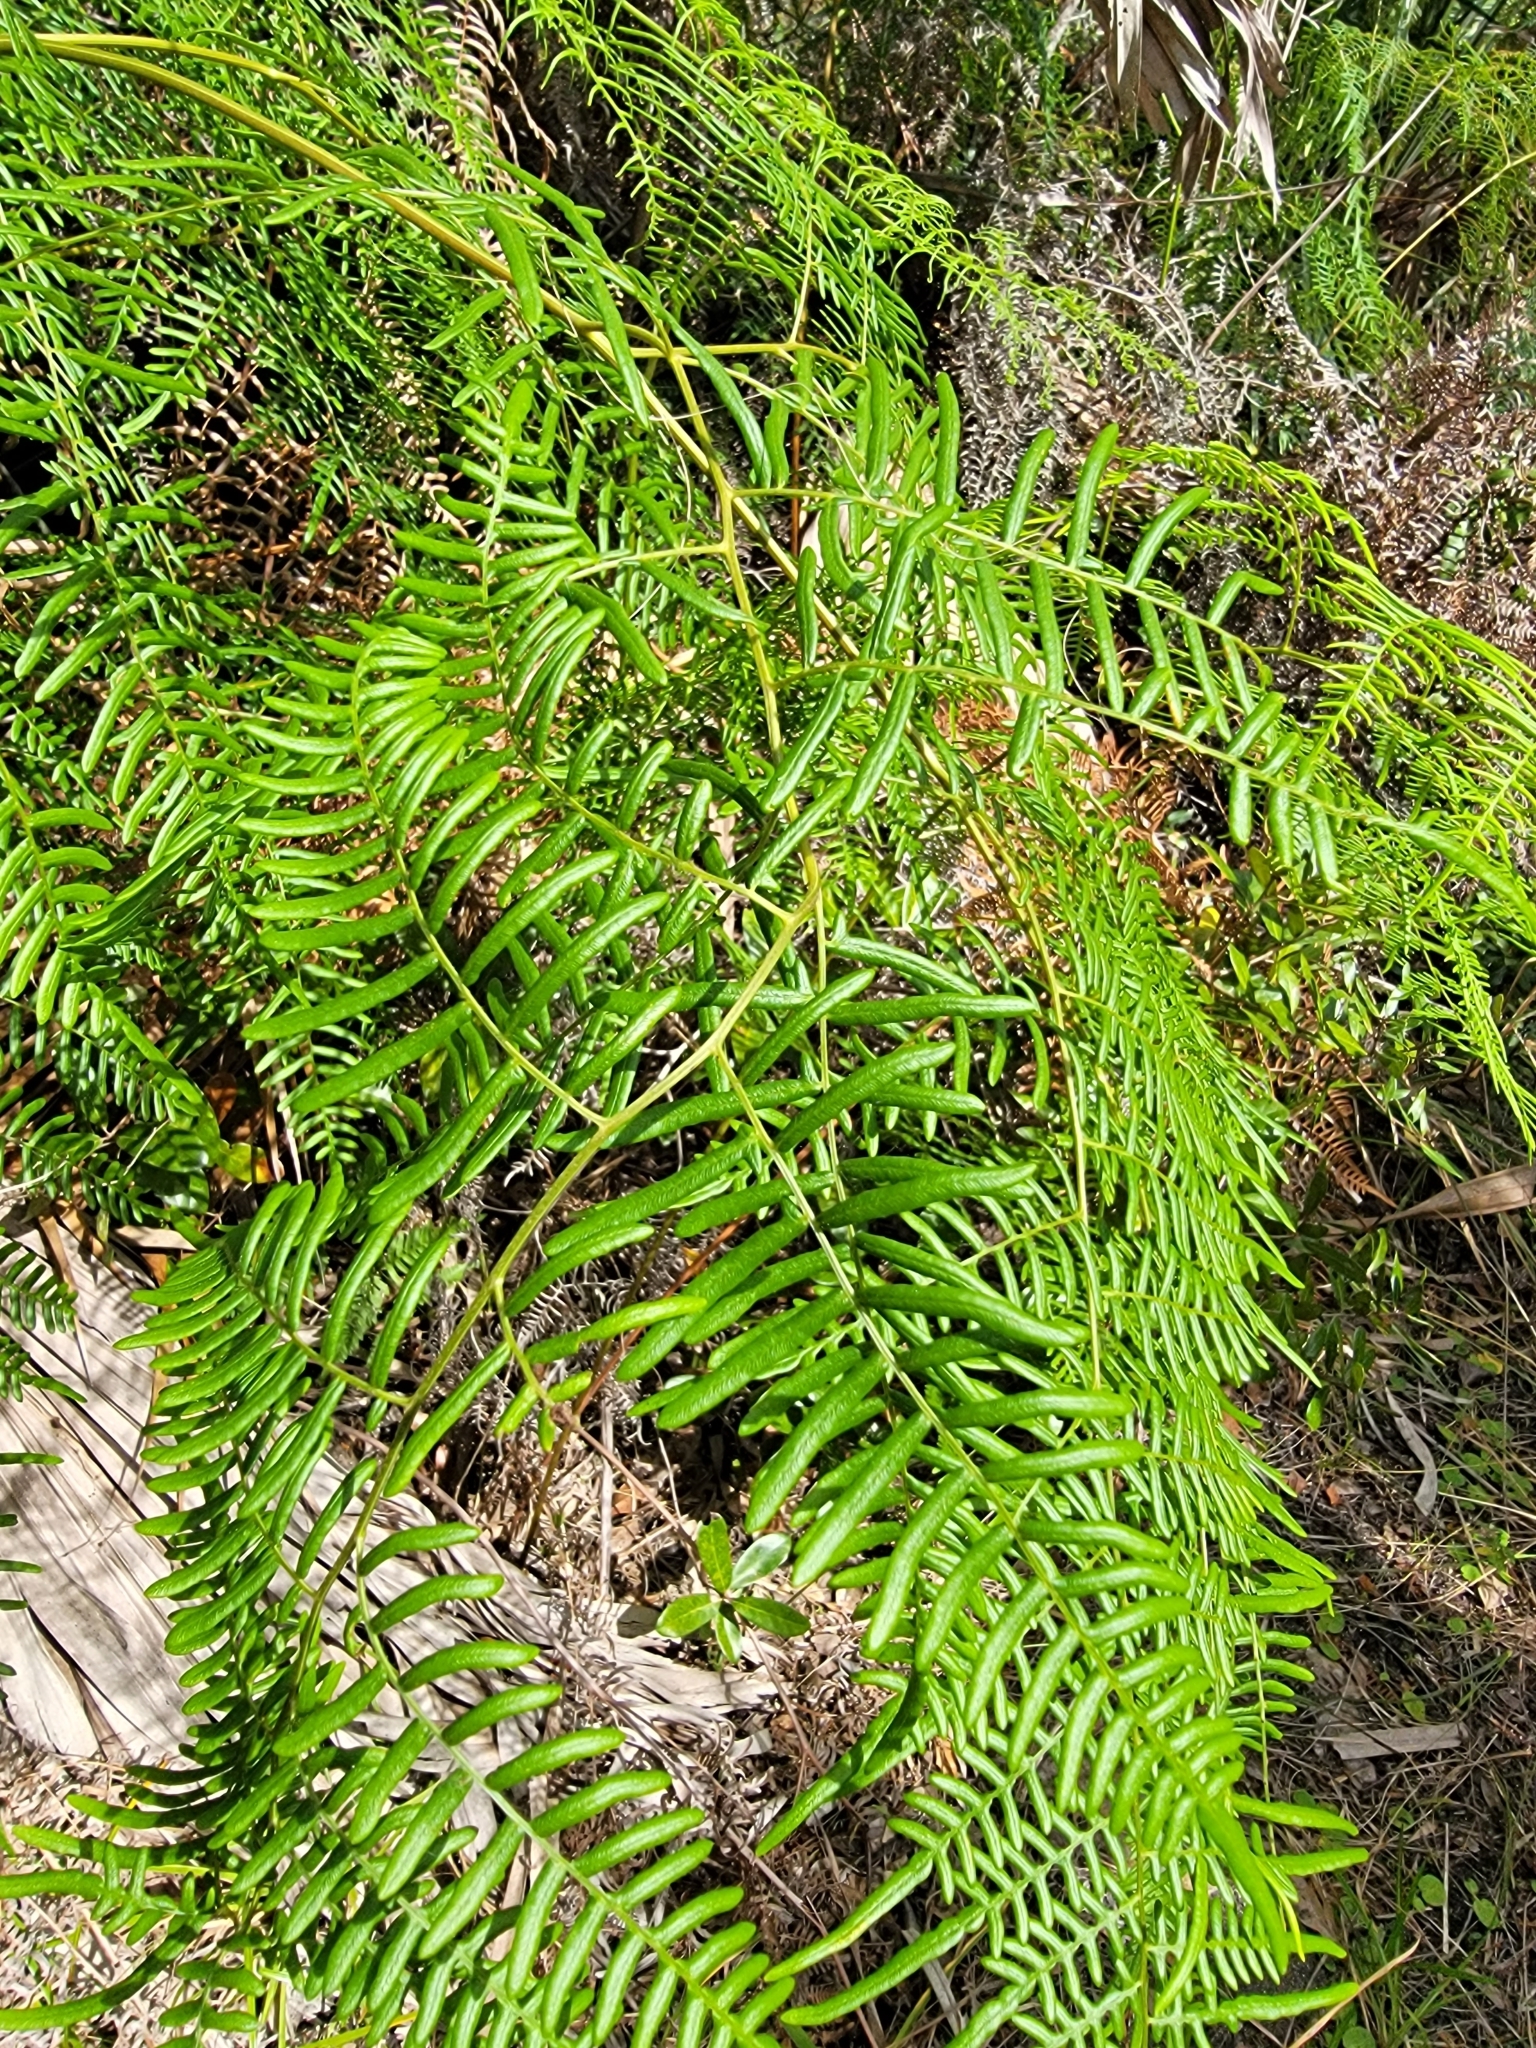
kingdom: Plantae
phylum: Tracheophyta
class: Polypodiopsida
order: Polypodiales
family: Dennstaedtiaceae
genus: Pteridium
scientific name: Pteridium caudatum
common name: Southern bracken fern
